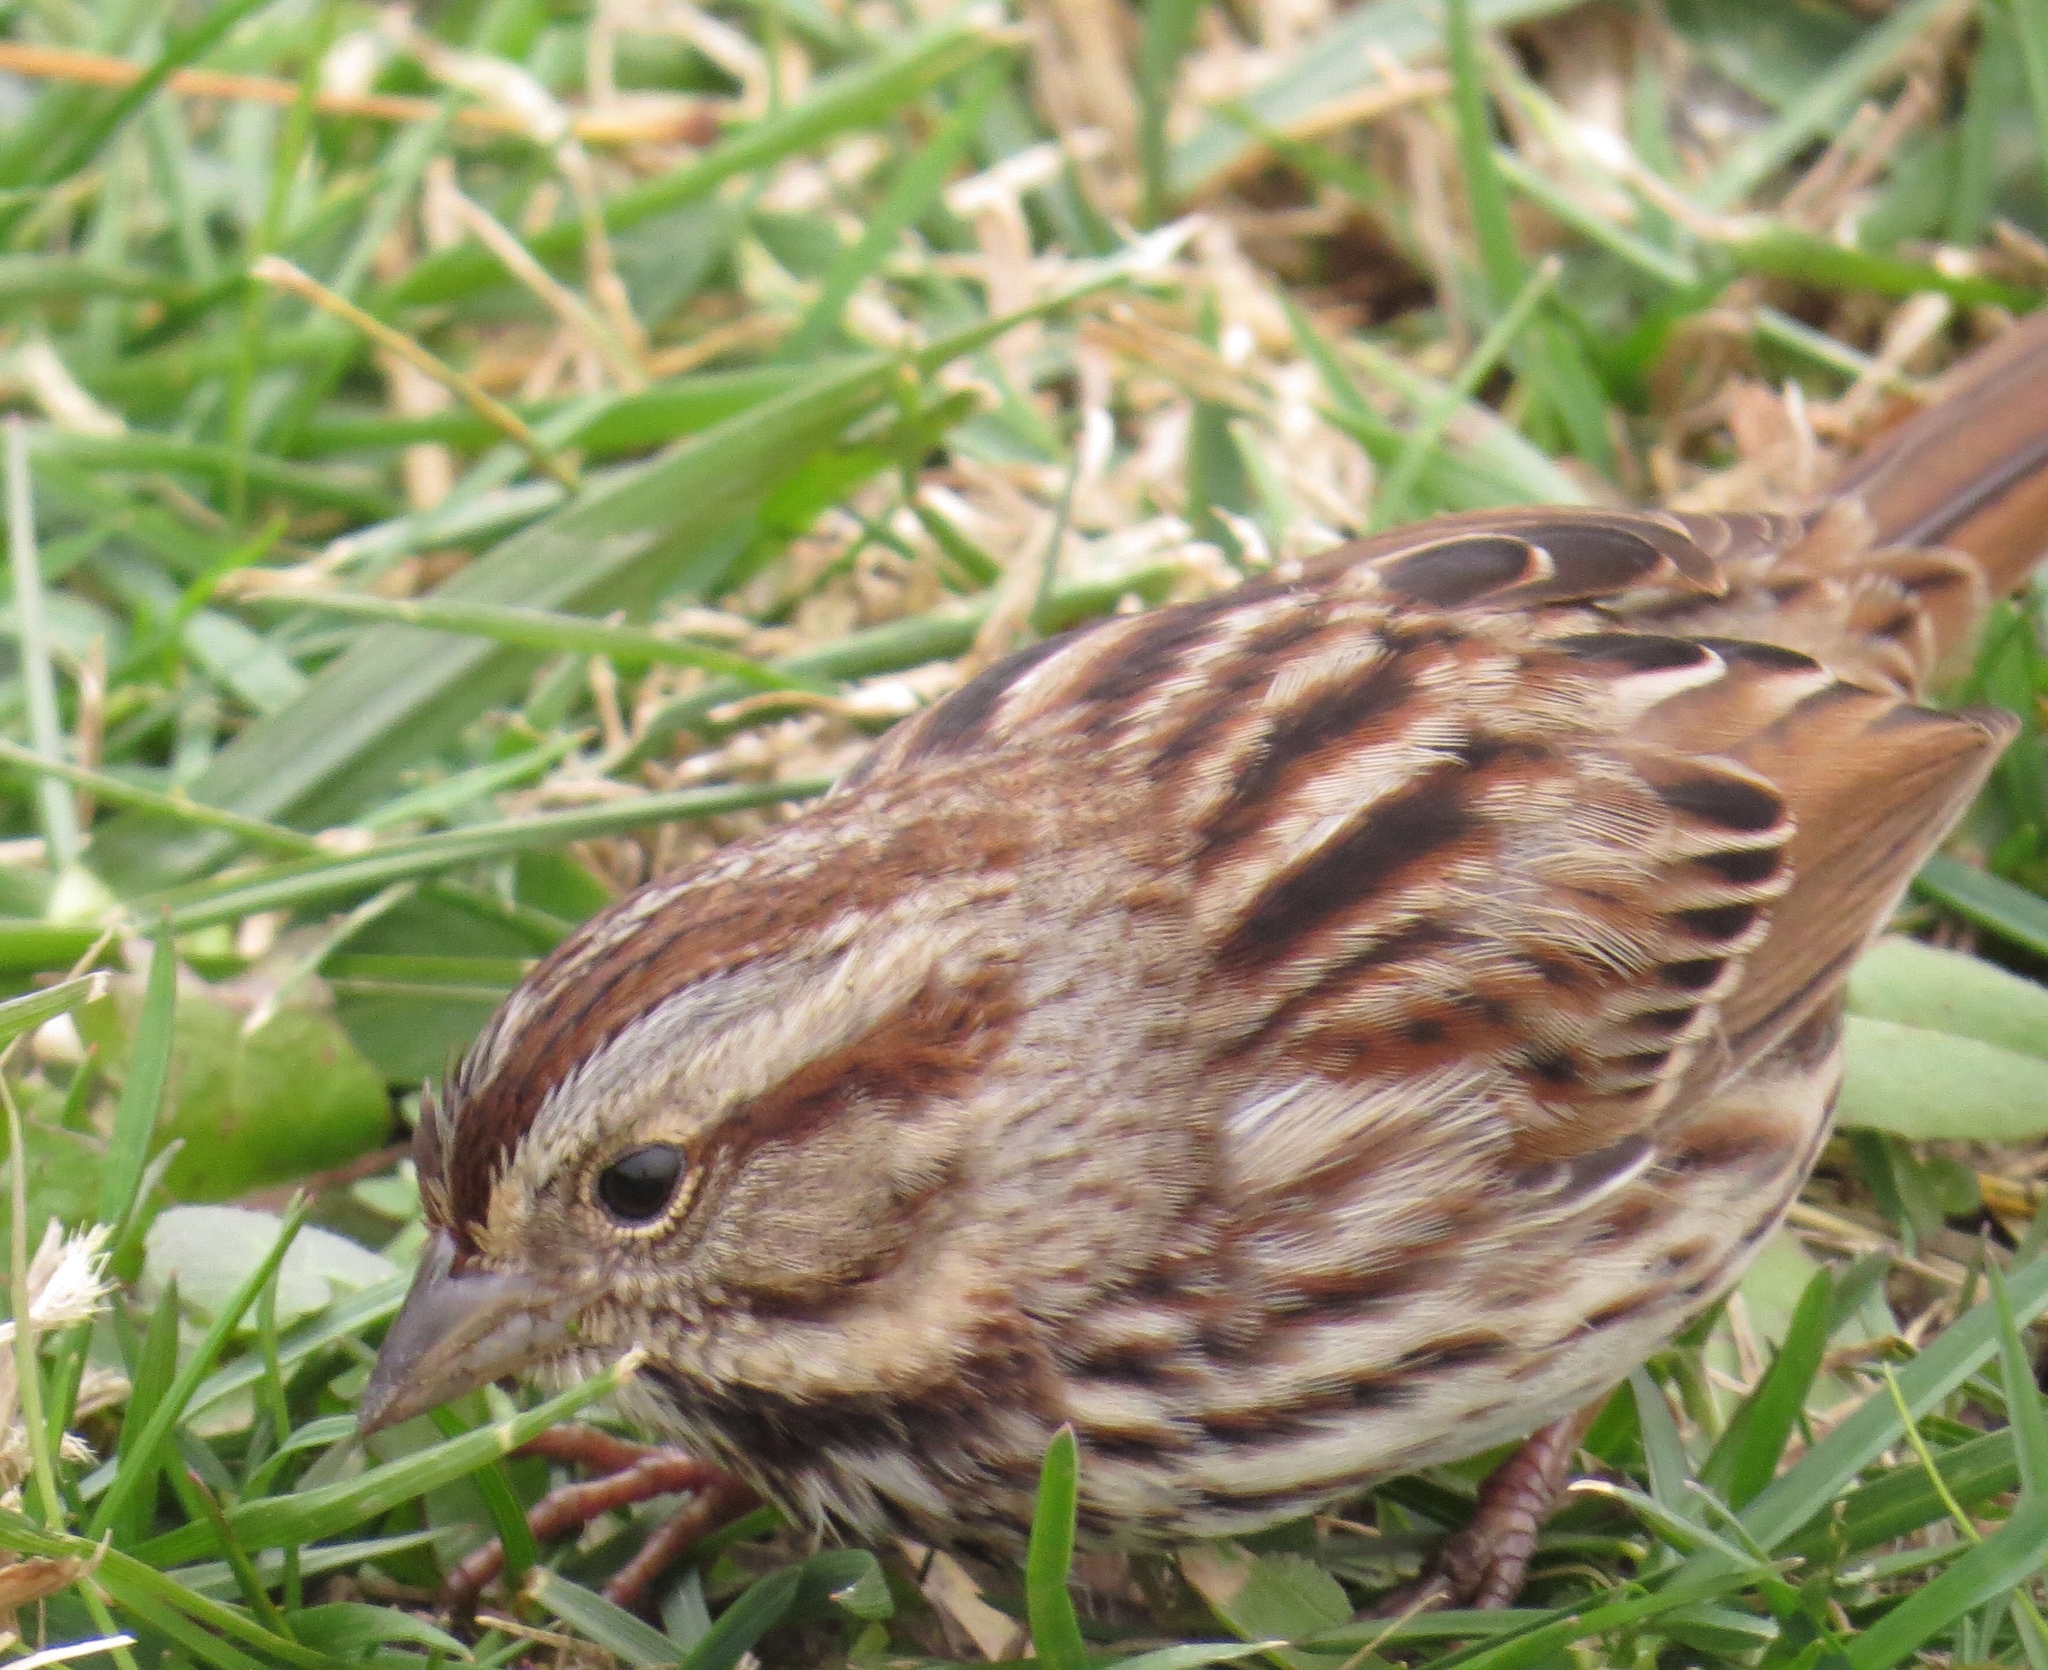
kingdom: Animalia
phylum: Chordata
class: Aves
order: Passeriformes
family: Passerellidae
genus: Melospiza
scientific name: Melospiza melodia
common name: Song sparrow
